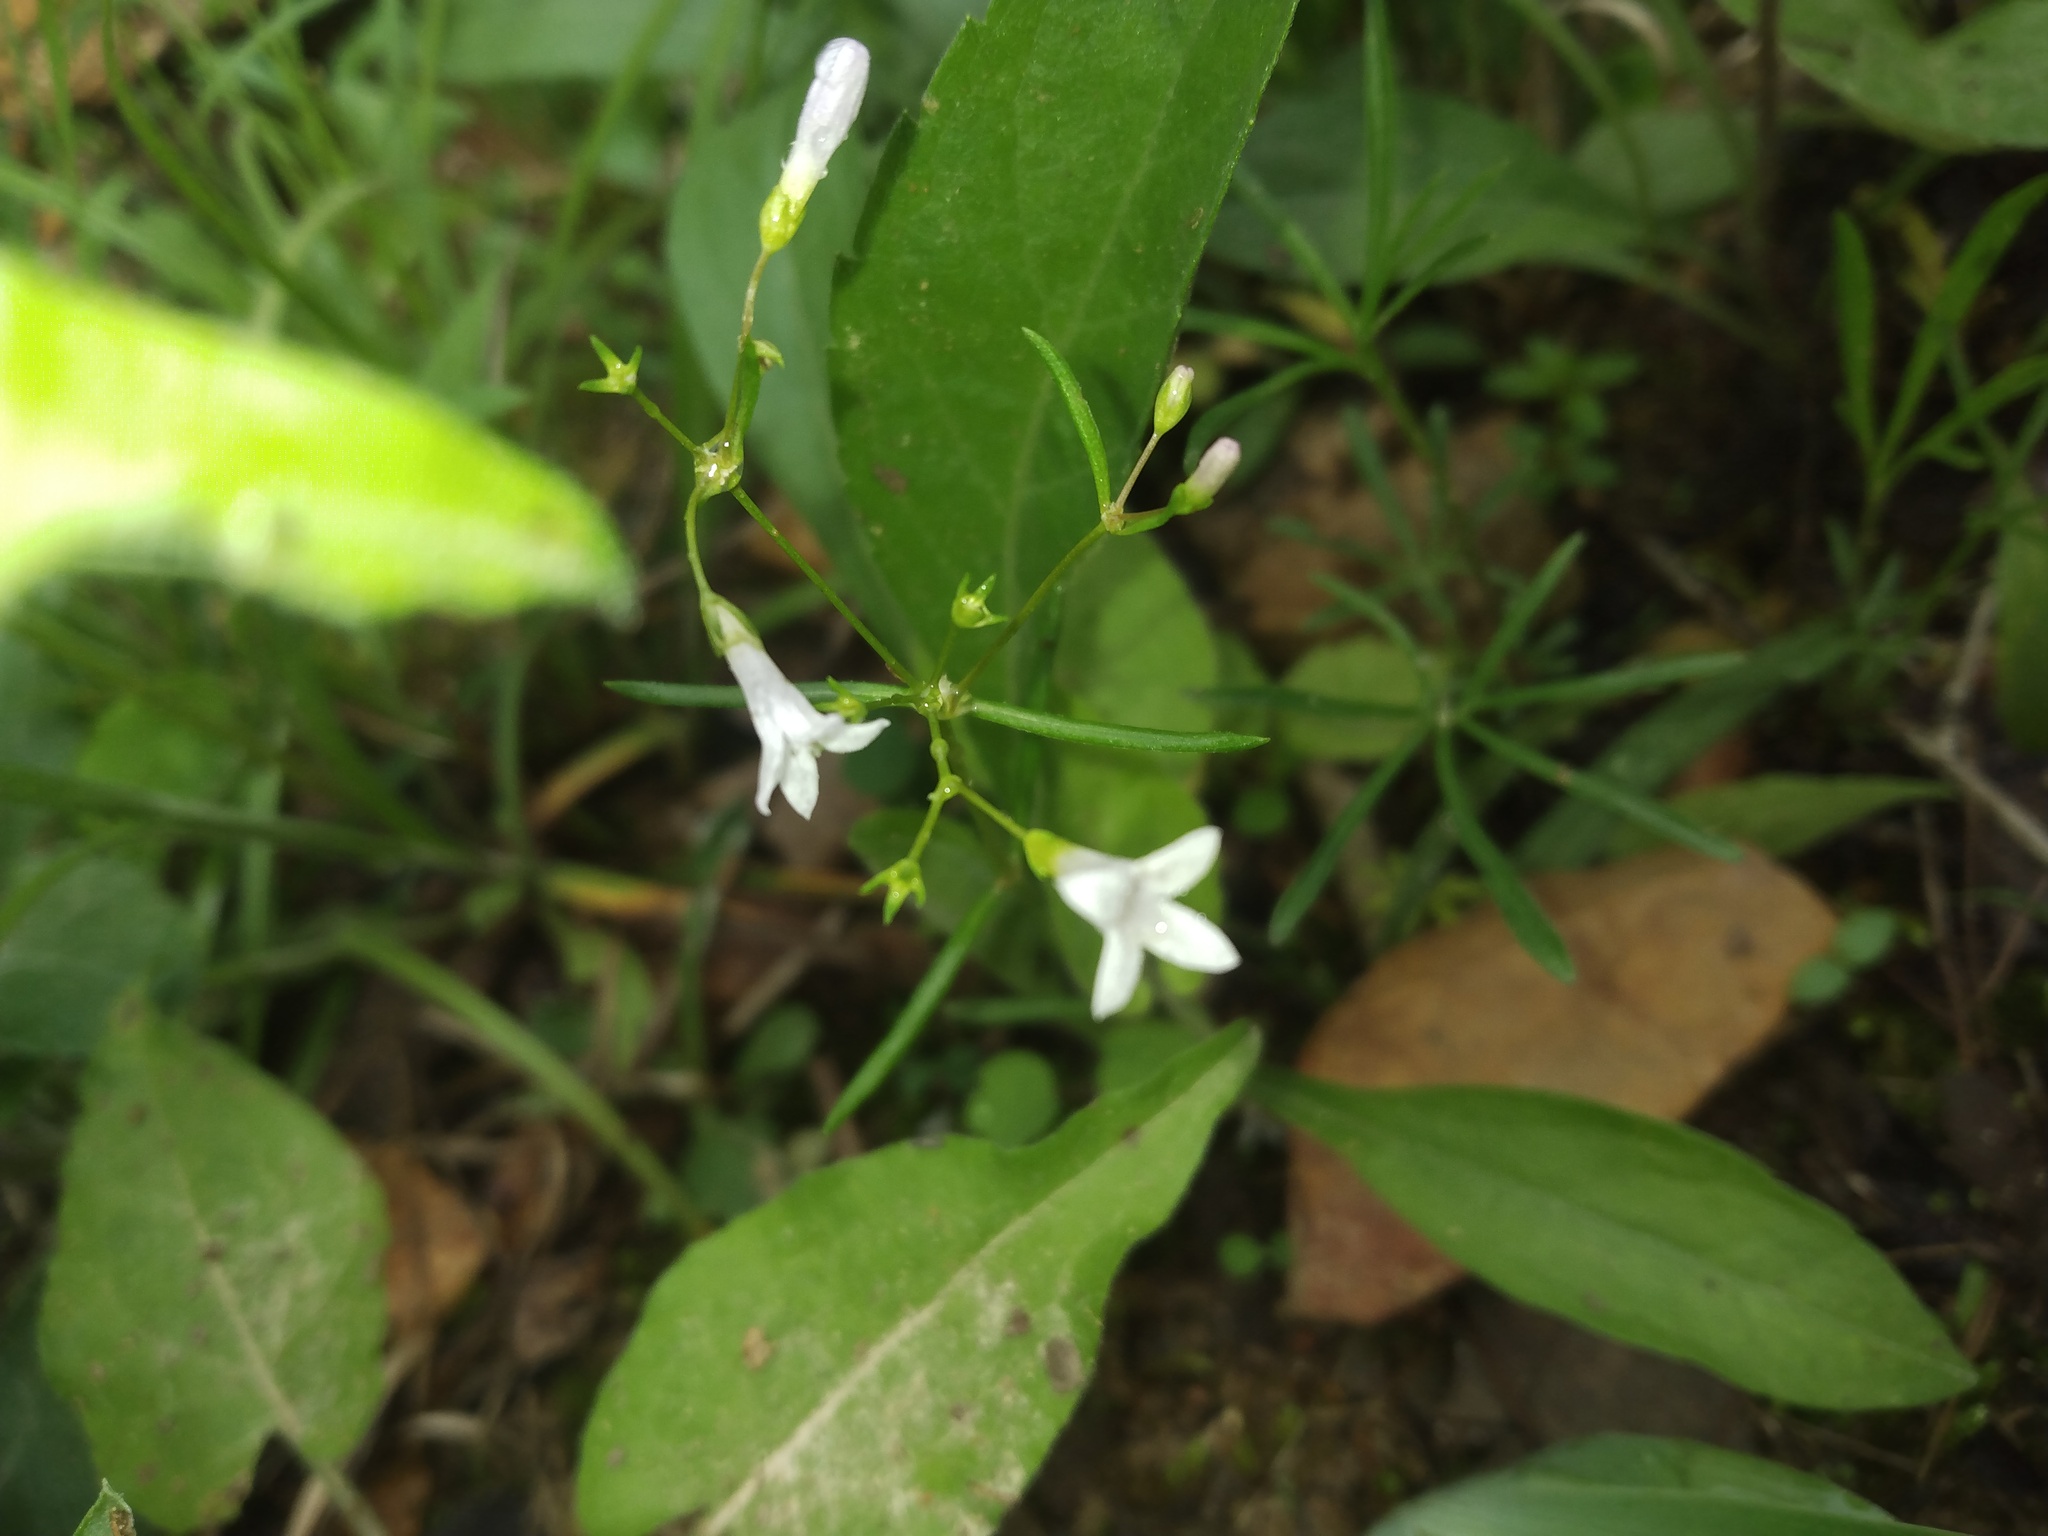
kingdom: Plantae
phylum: Tracheophyta
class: Magnoliopsida
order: Gentianales
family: Rubiaceae
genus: Houstonia
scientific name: Houstonia longifolia
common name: Long-leaved bluets
